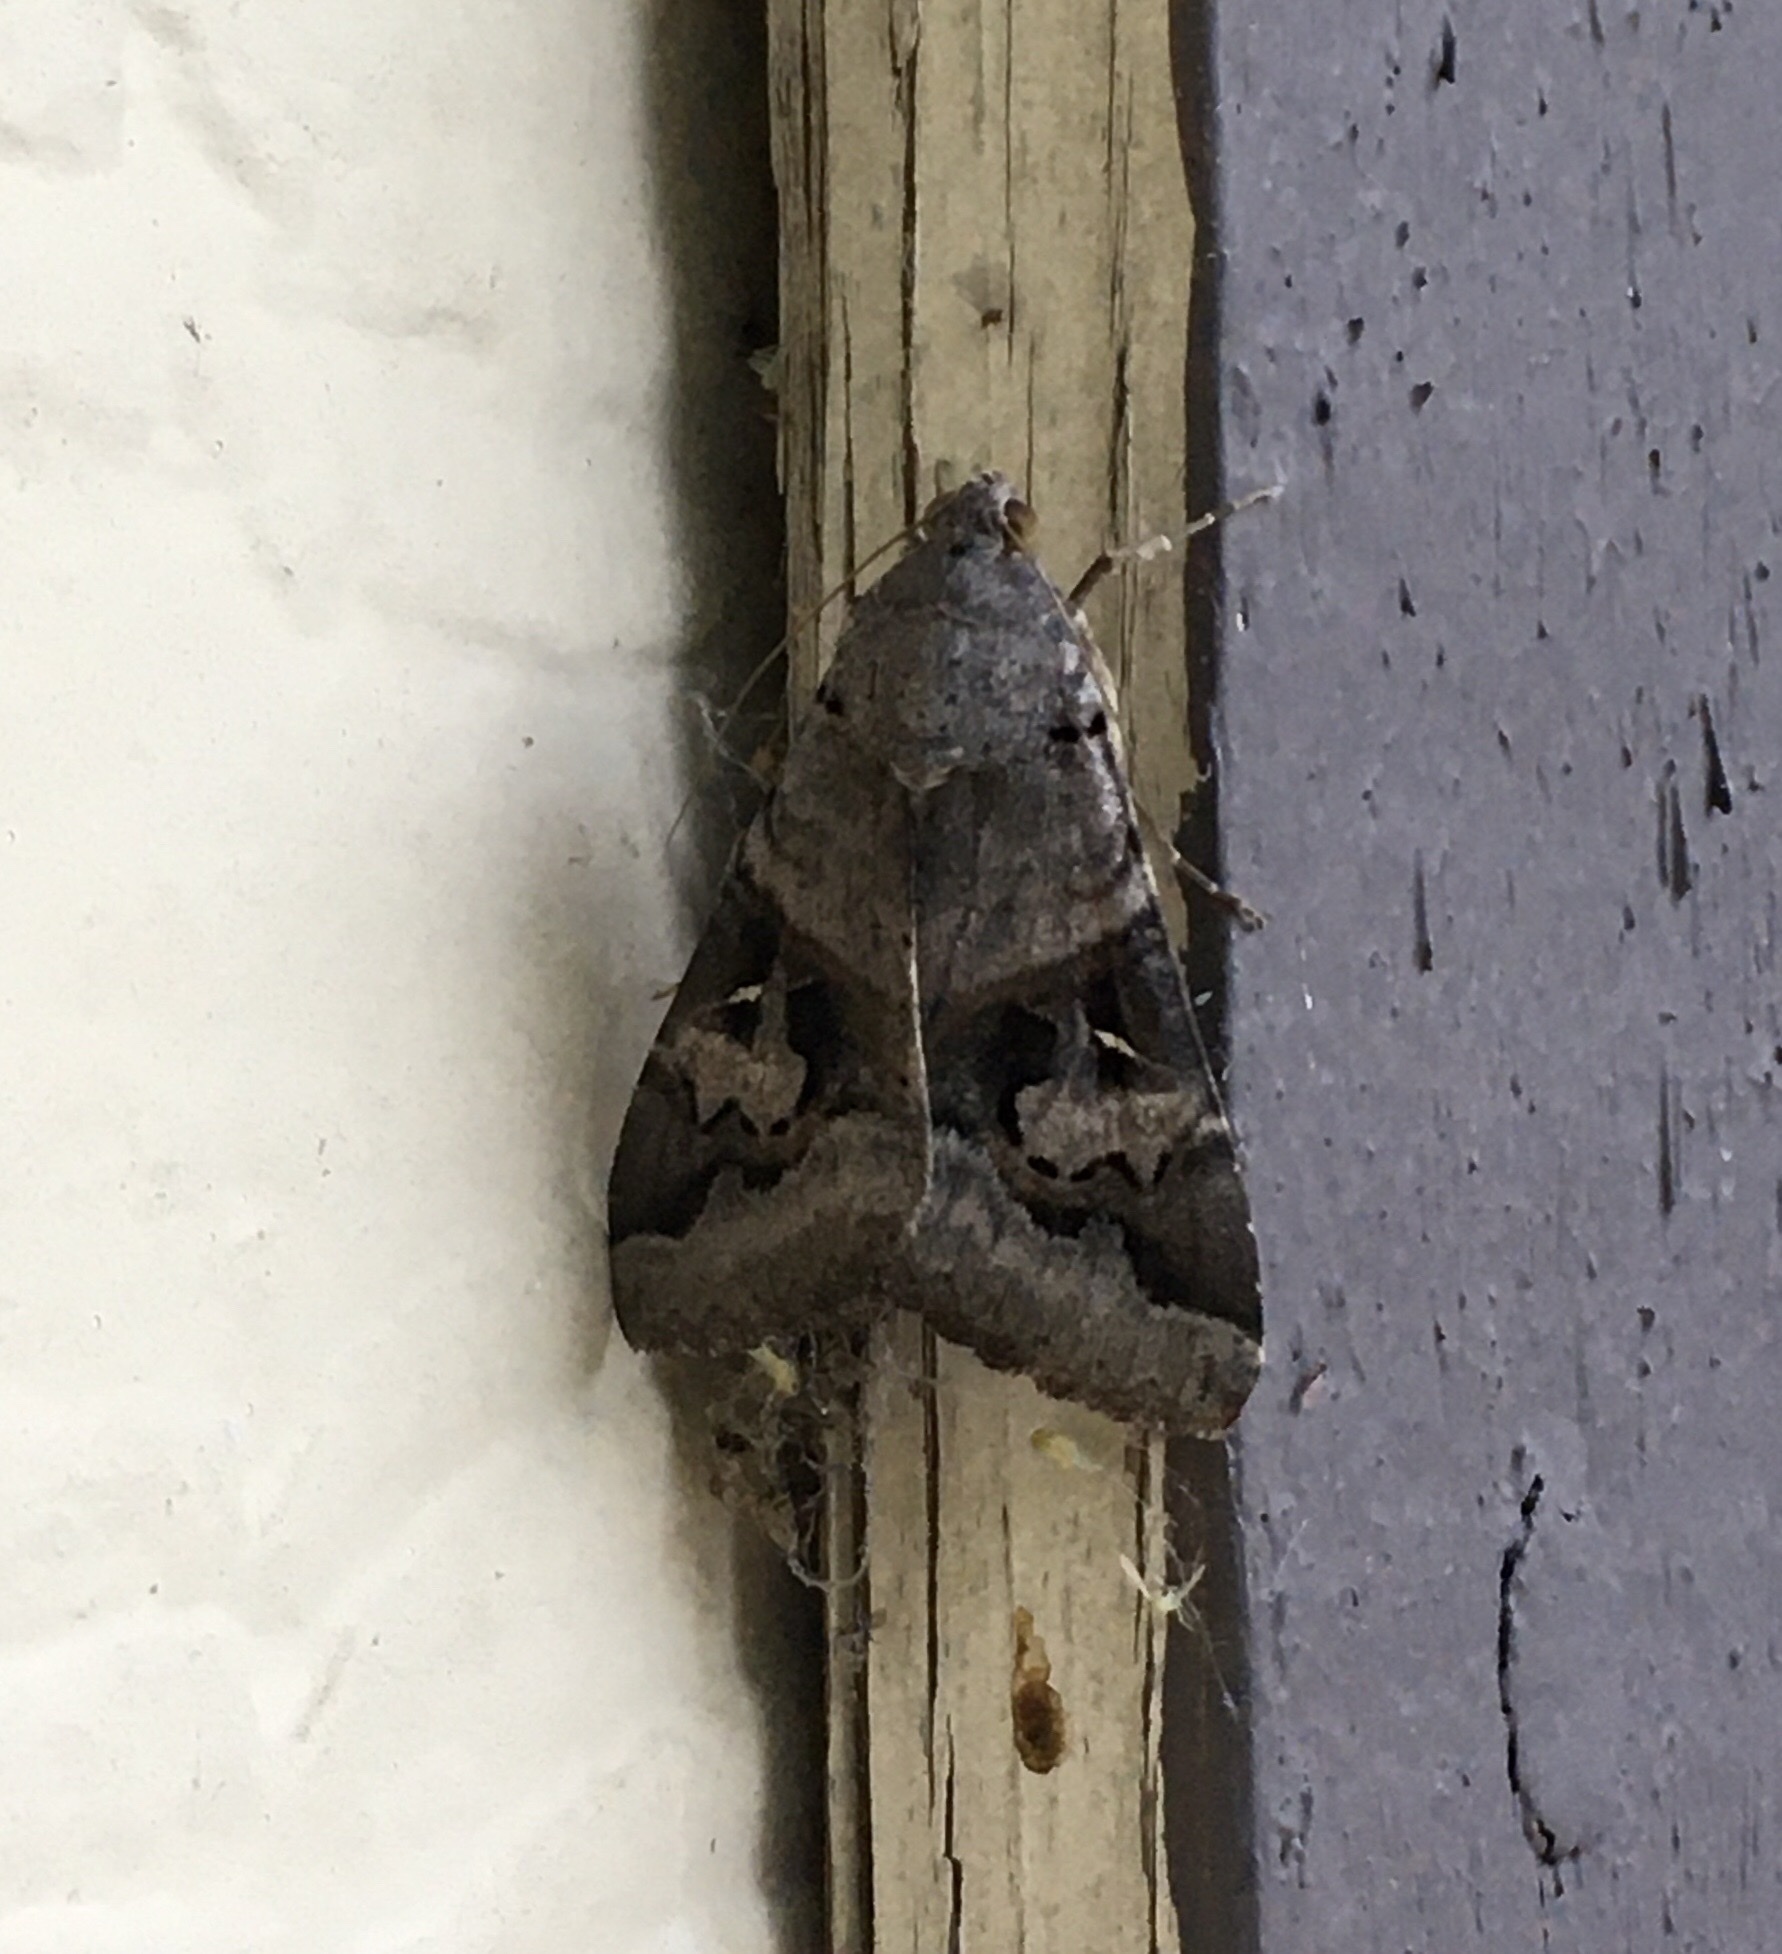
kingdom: Animalia
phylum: Arthropoda
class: Insecta
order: Lepidoptera
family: Erebidae
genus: Melipotis
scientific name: Melipotis indomita
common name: Moth
